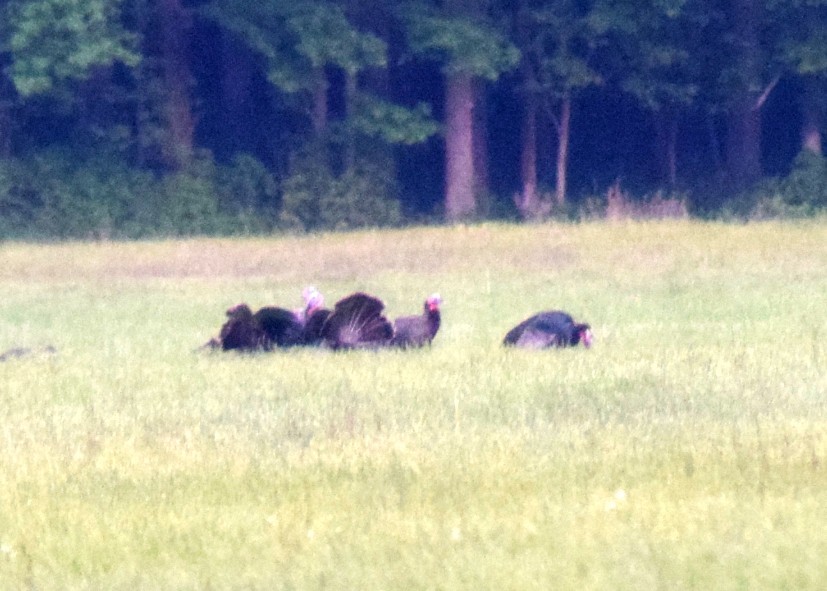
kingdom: Animalia
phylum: Chordata
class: Aves
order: Galliformes
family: Phasianidae
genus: Meleagris
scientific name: Meleagris gallopavo
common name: Wild turkey
